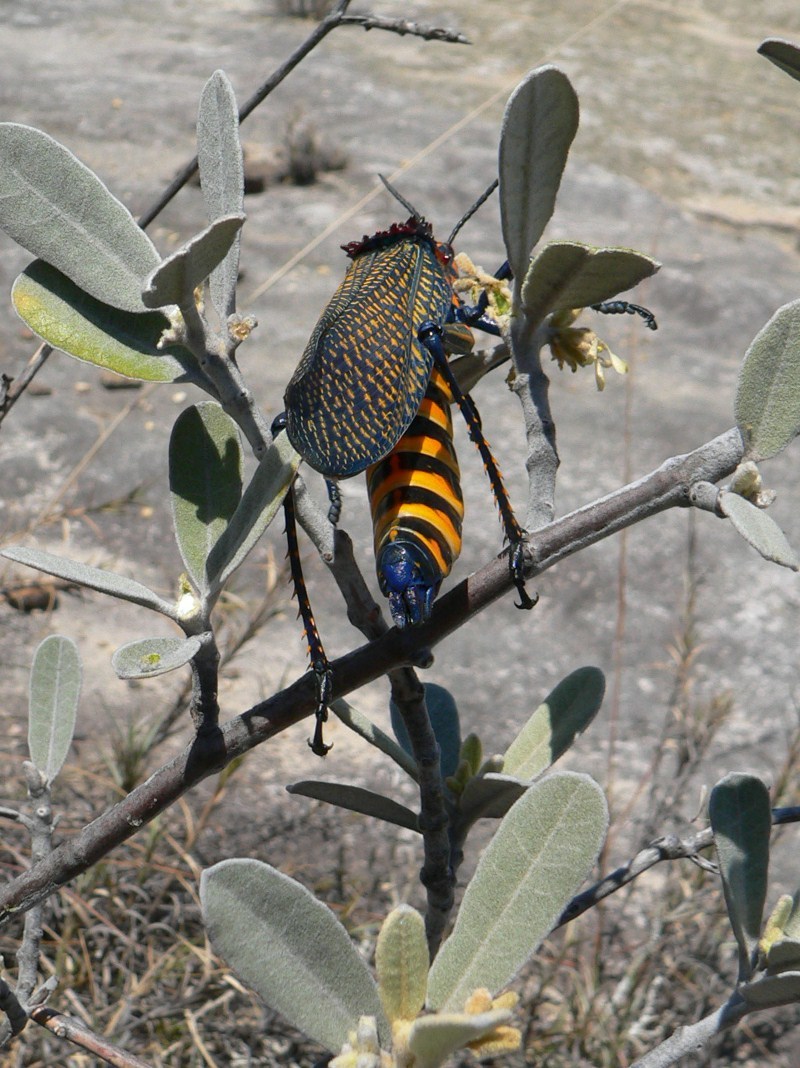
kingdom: Animalia
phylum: Arthropoda
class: Insecta
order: Orthoptera
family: Pyrgomorphidae
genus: Phymateus
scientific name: Phymateus saxosus
